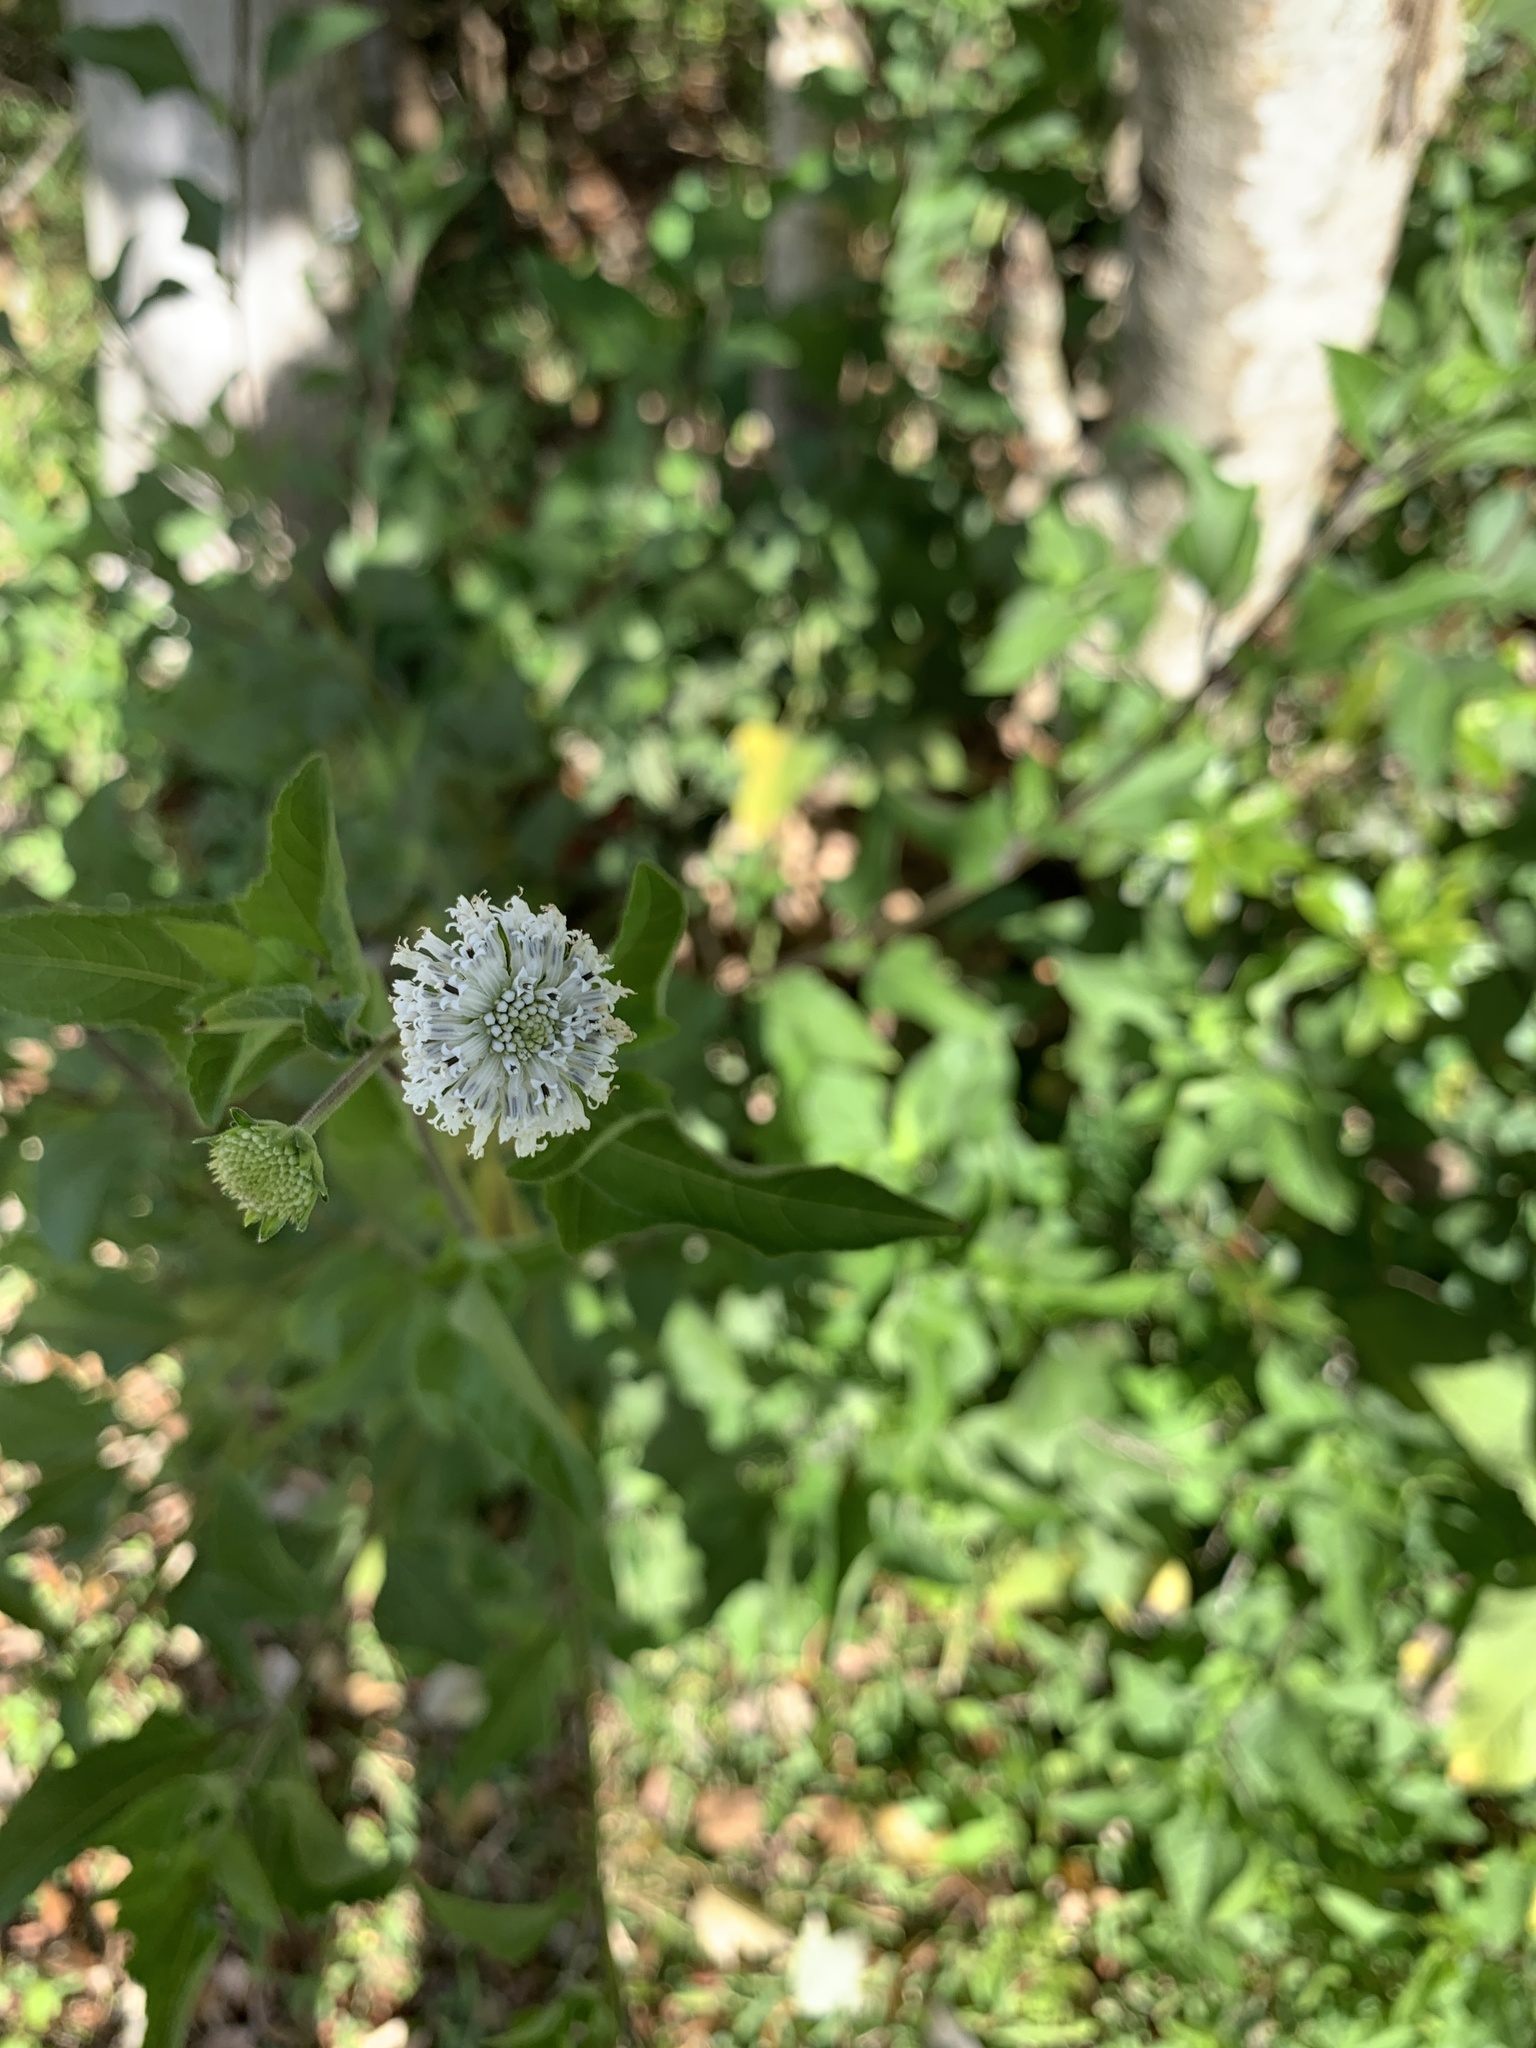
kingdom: Plantae
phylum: Tracheophyta
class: Magnoliopsida
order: Asterales
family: Asteraceae
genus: Melanthera
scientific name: Melanthera nivea
